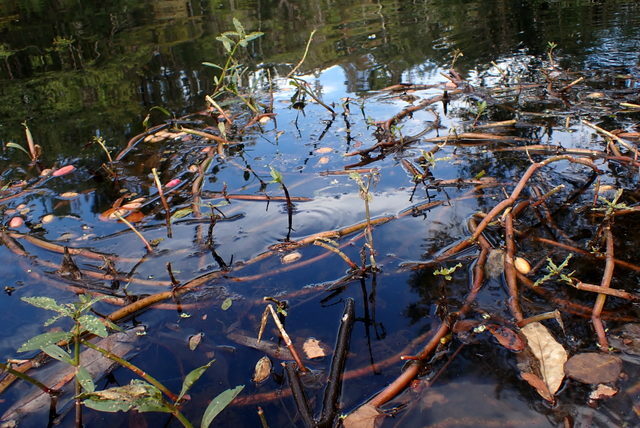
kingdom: Plantae
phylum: Tracheophyta
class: Magnoliopsida
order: Caryophyllales
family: Amaranthaceae
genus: Alternanthera
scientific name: Alternanthera philoxeroides
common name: Alligatorweed
